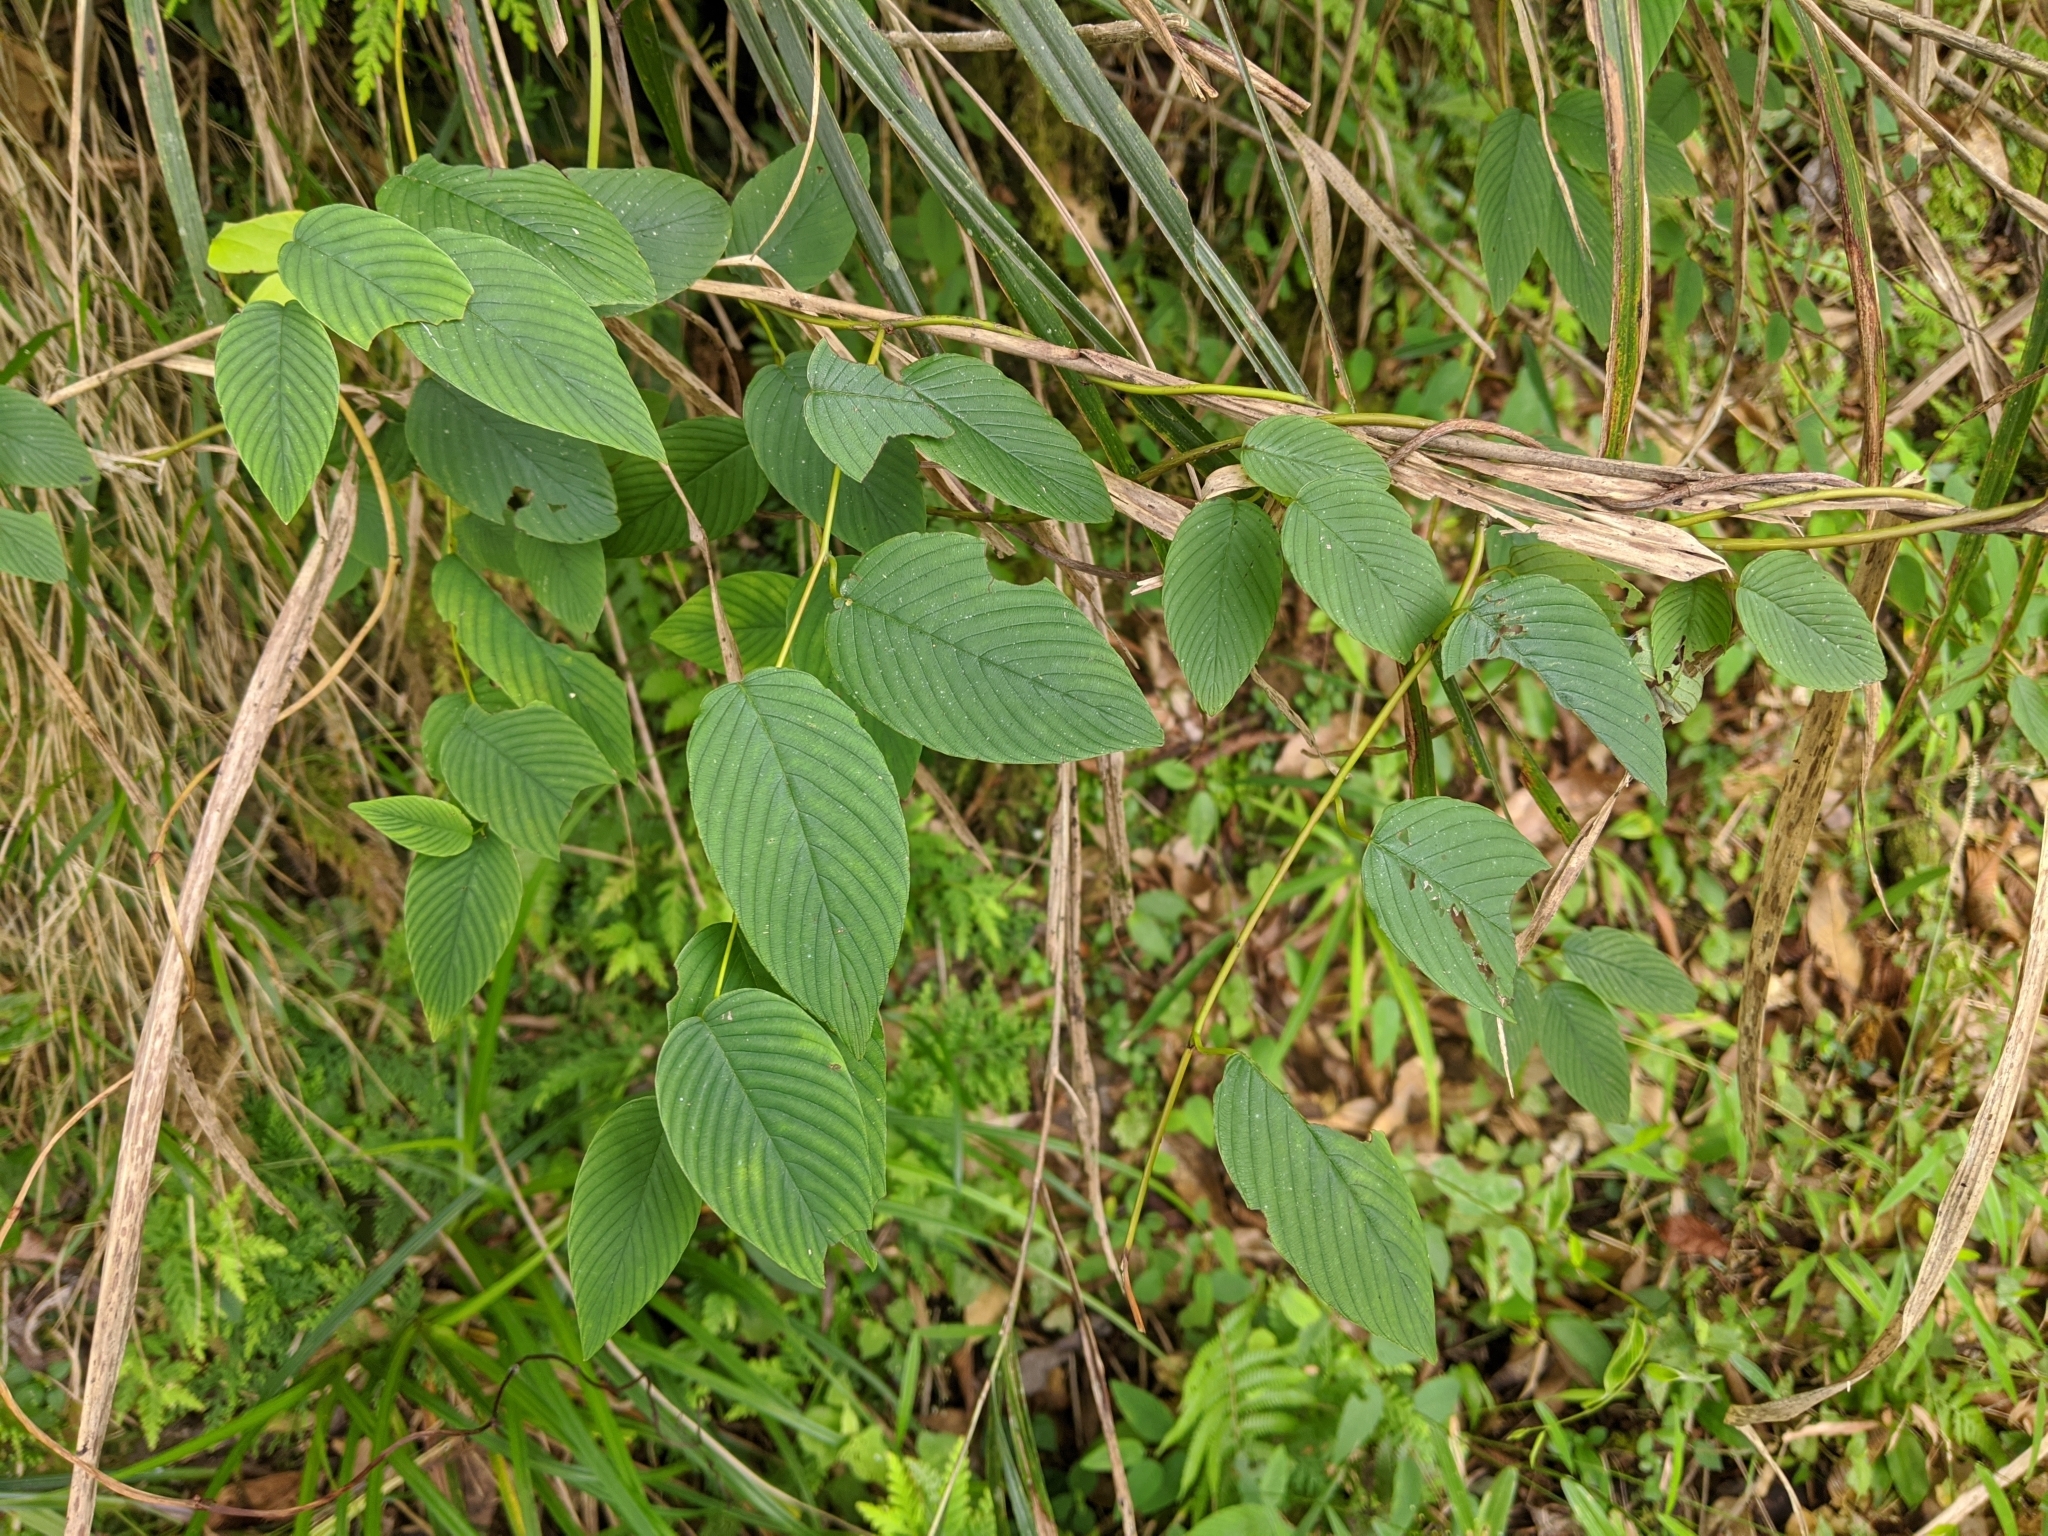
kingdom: Plantae
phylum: Tracheophyta
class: Magnoliopsida
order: Rosales
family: Rhamnaceae
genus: Berchemia
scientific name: Berchemia floribunda
